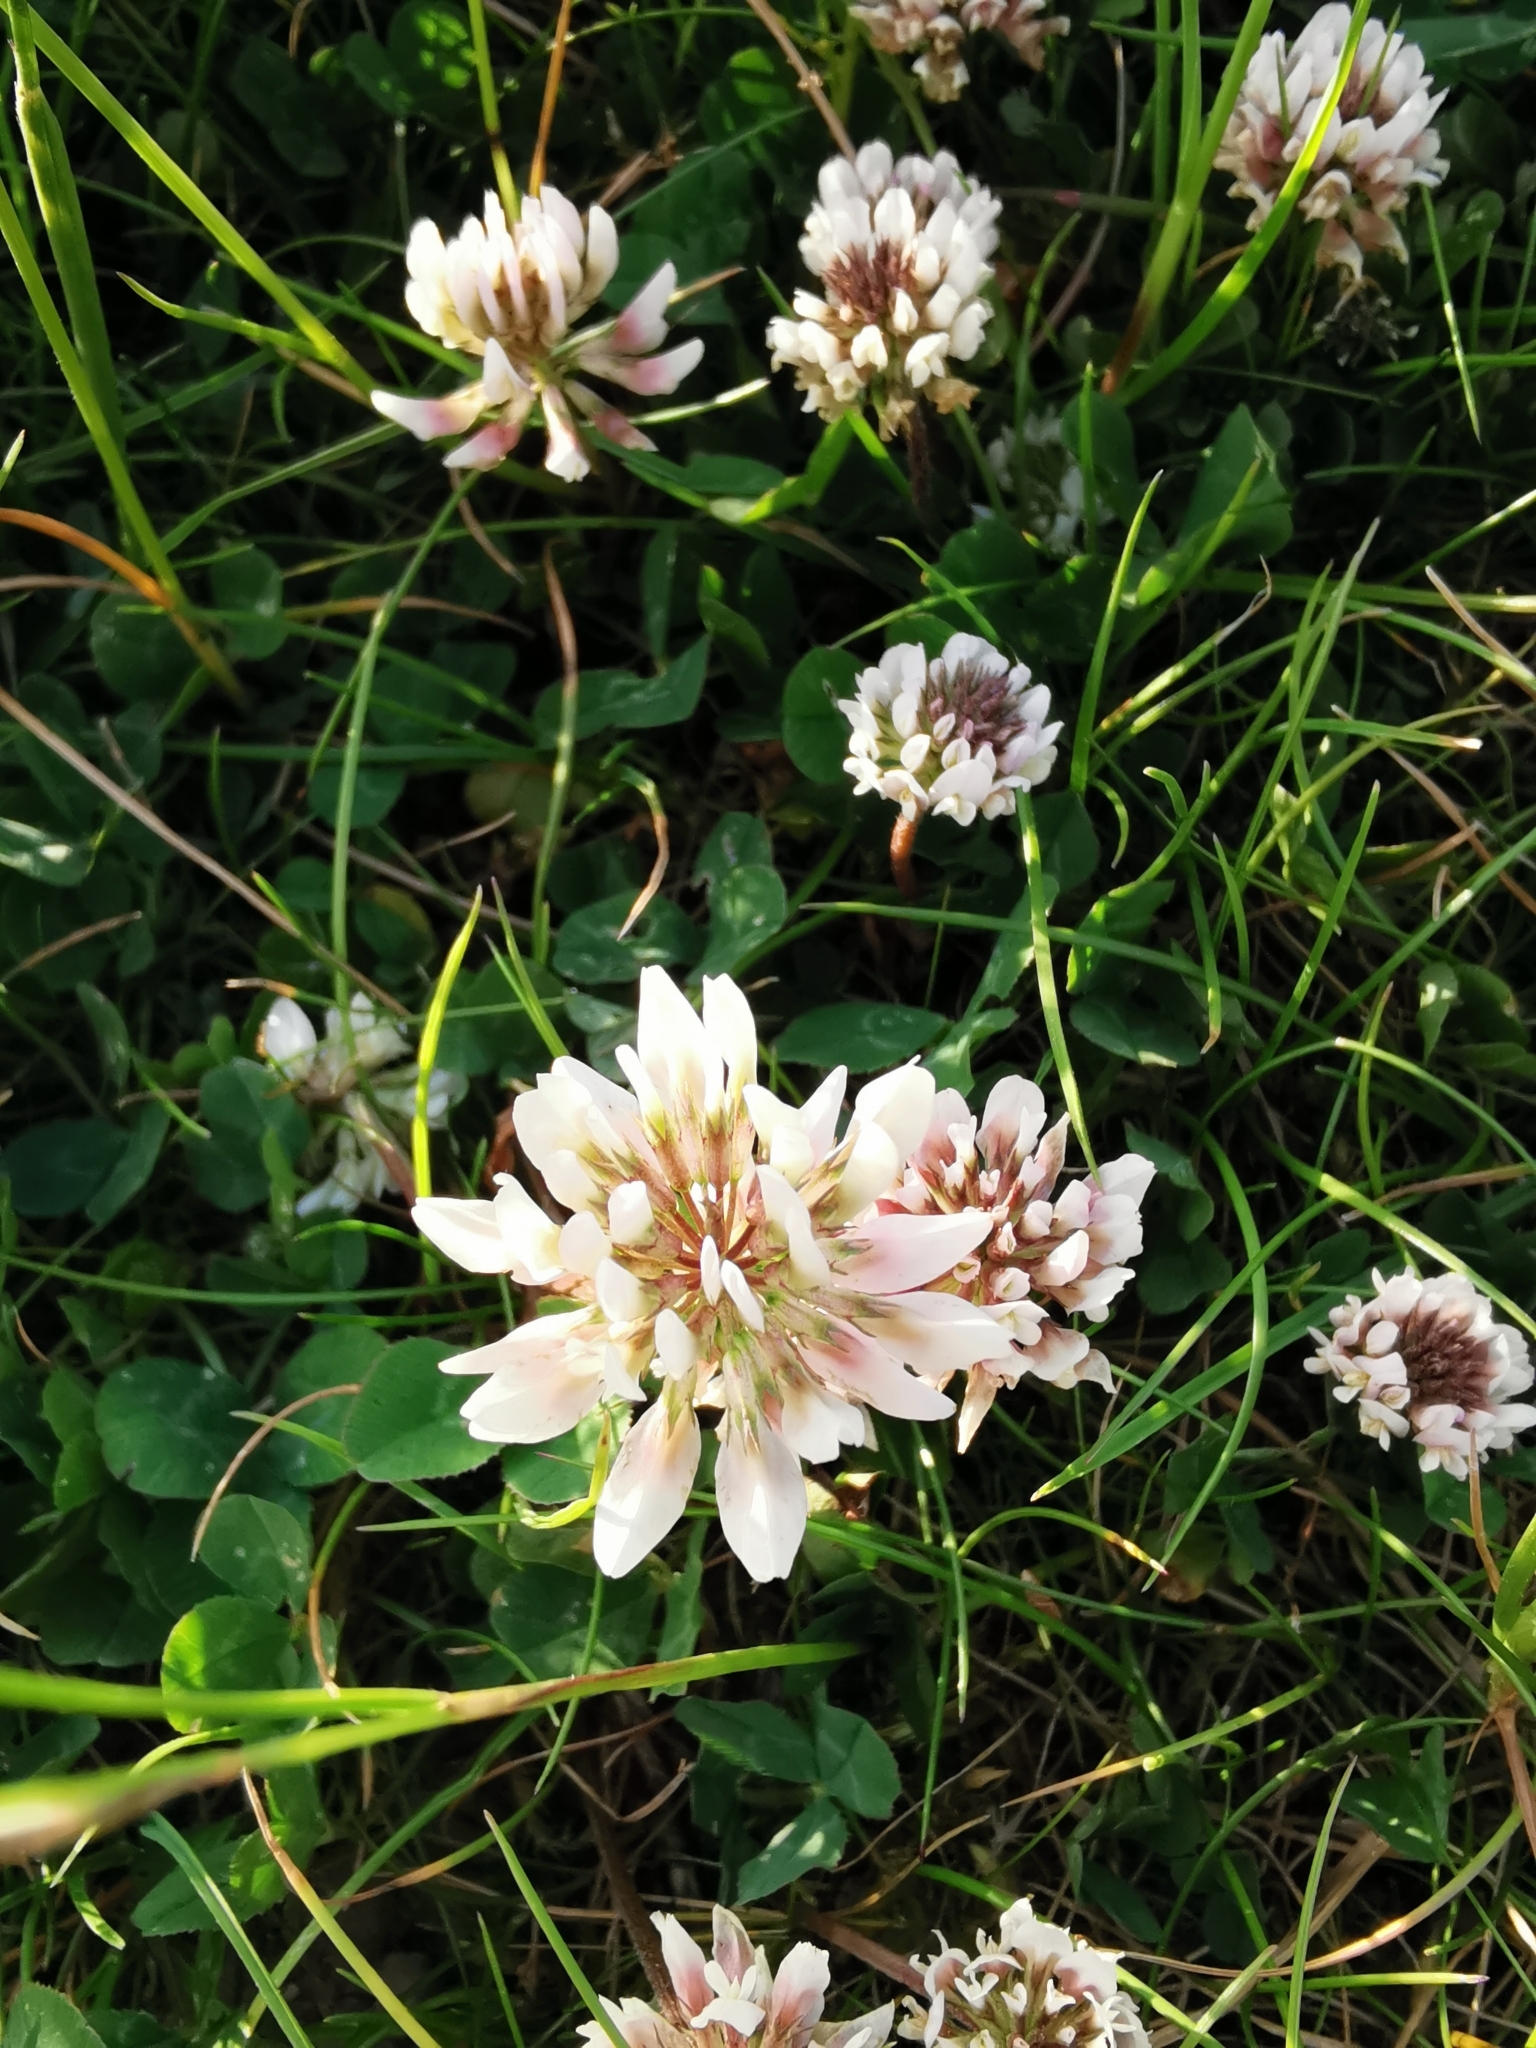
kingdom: Plantae
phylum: Tracheophyta
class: Magnoliopsida
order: Fabales
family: Fabaceae
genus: Trifolium
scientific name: Trifolium repens
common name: White clover
